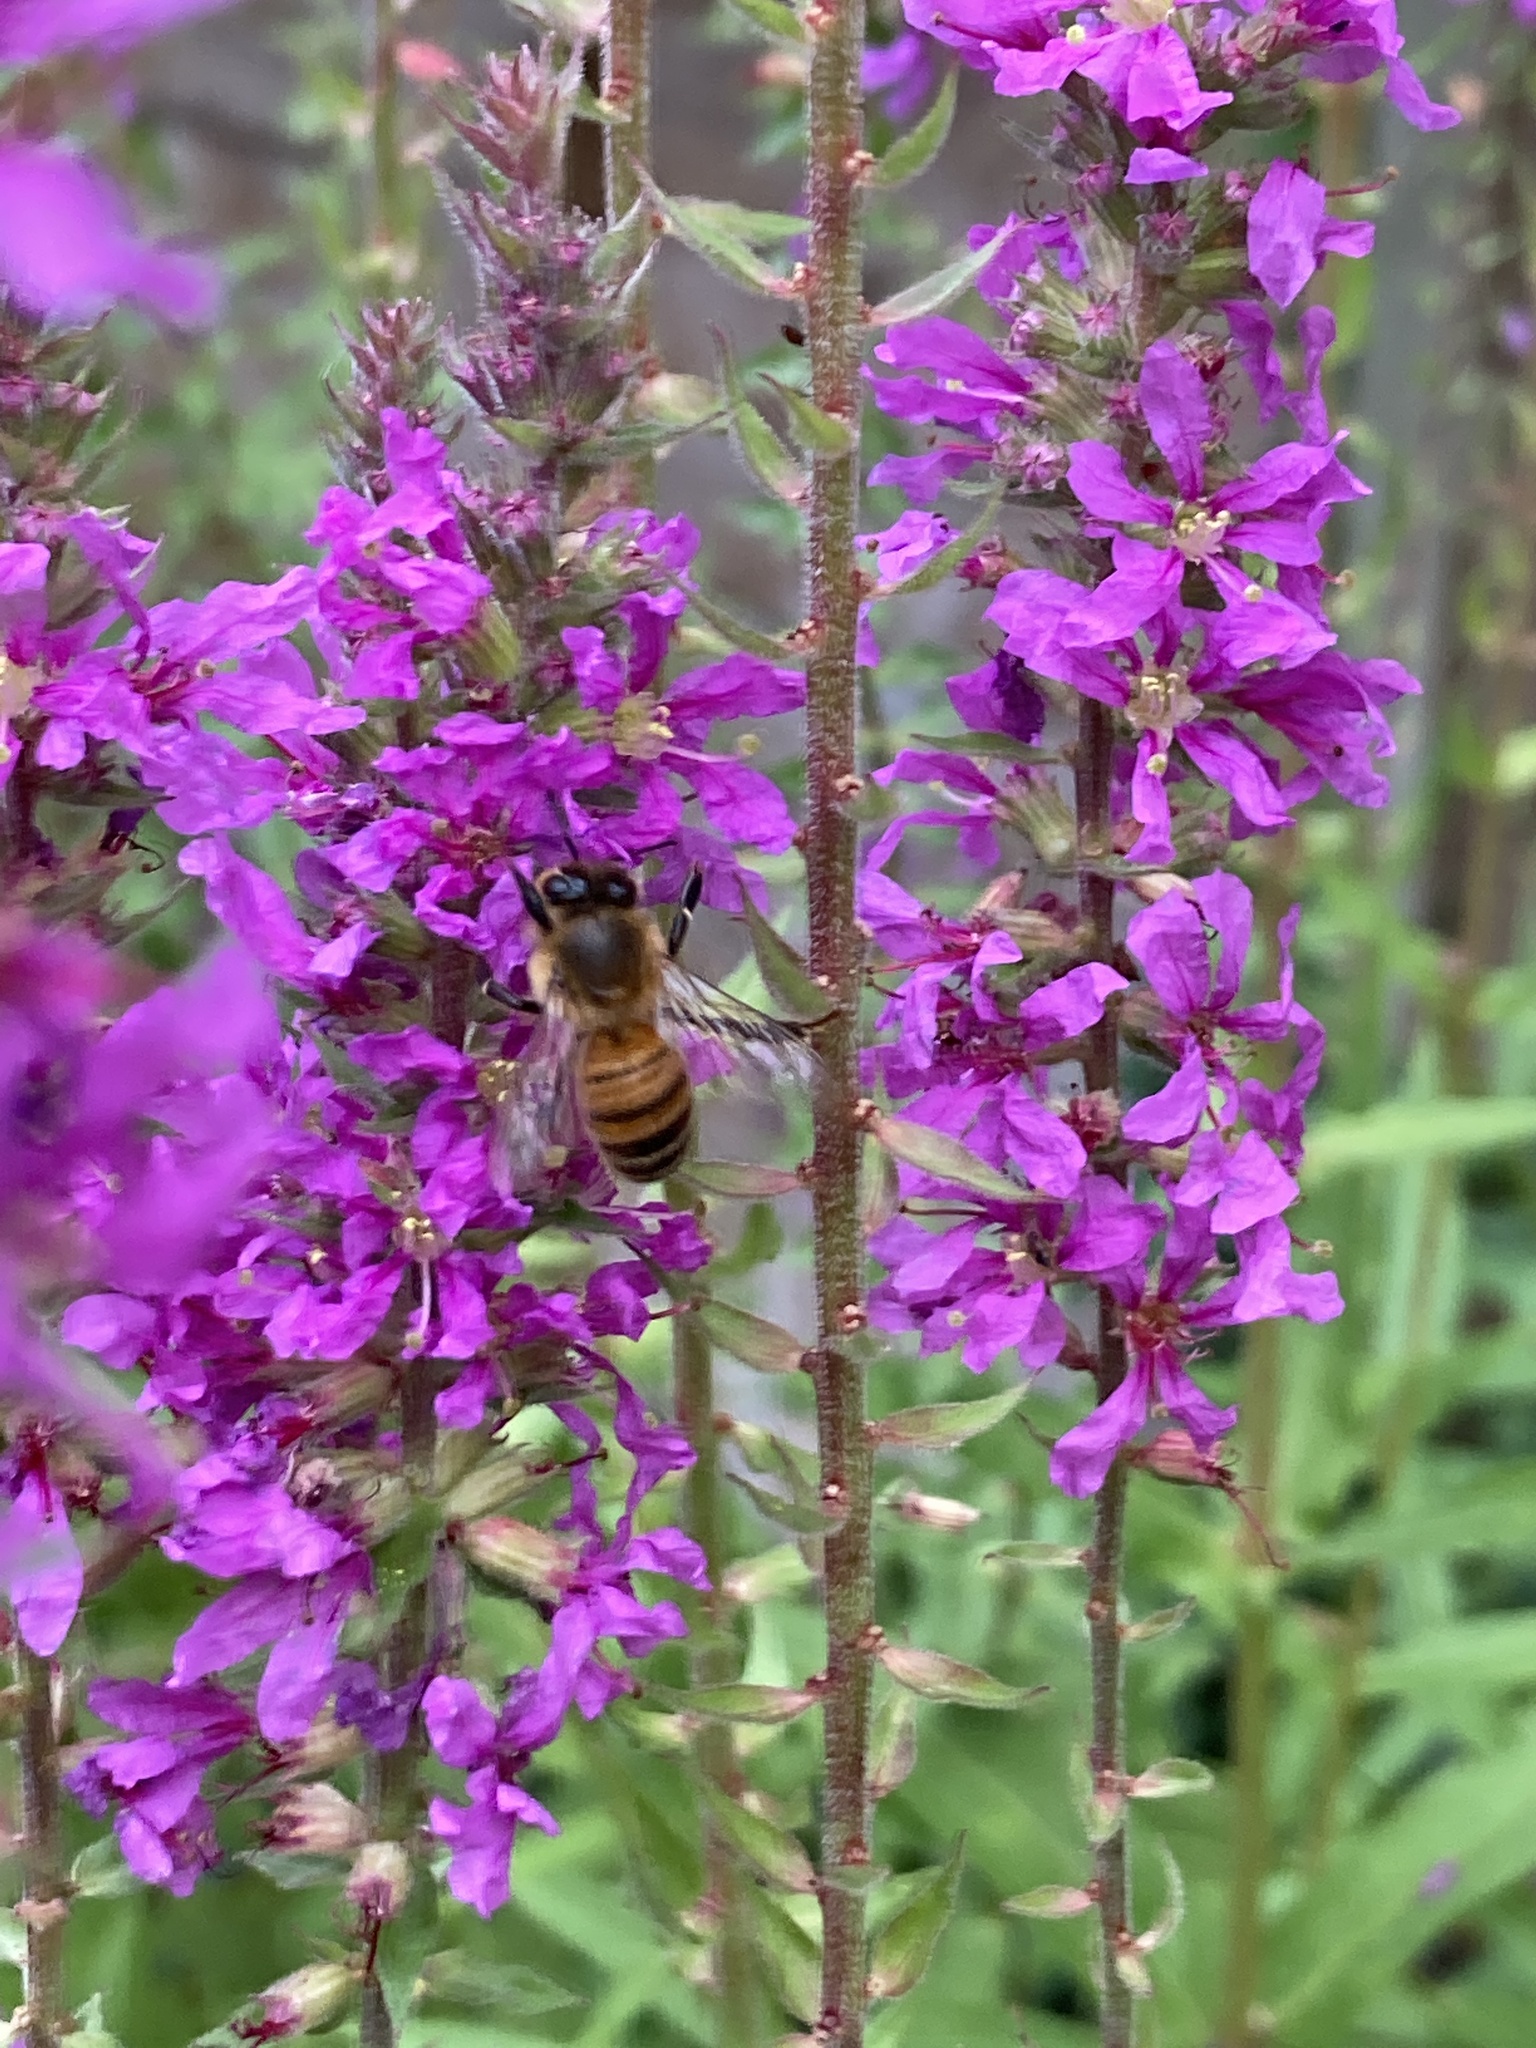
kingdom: Animalia
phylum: Arthropoda
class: Insecta
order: Hymenoptera
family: Apidae
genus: Apis
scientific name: Apis mellifera
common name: Honey bee
